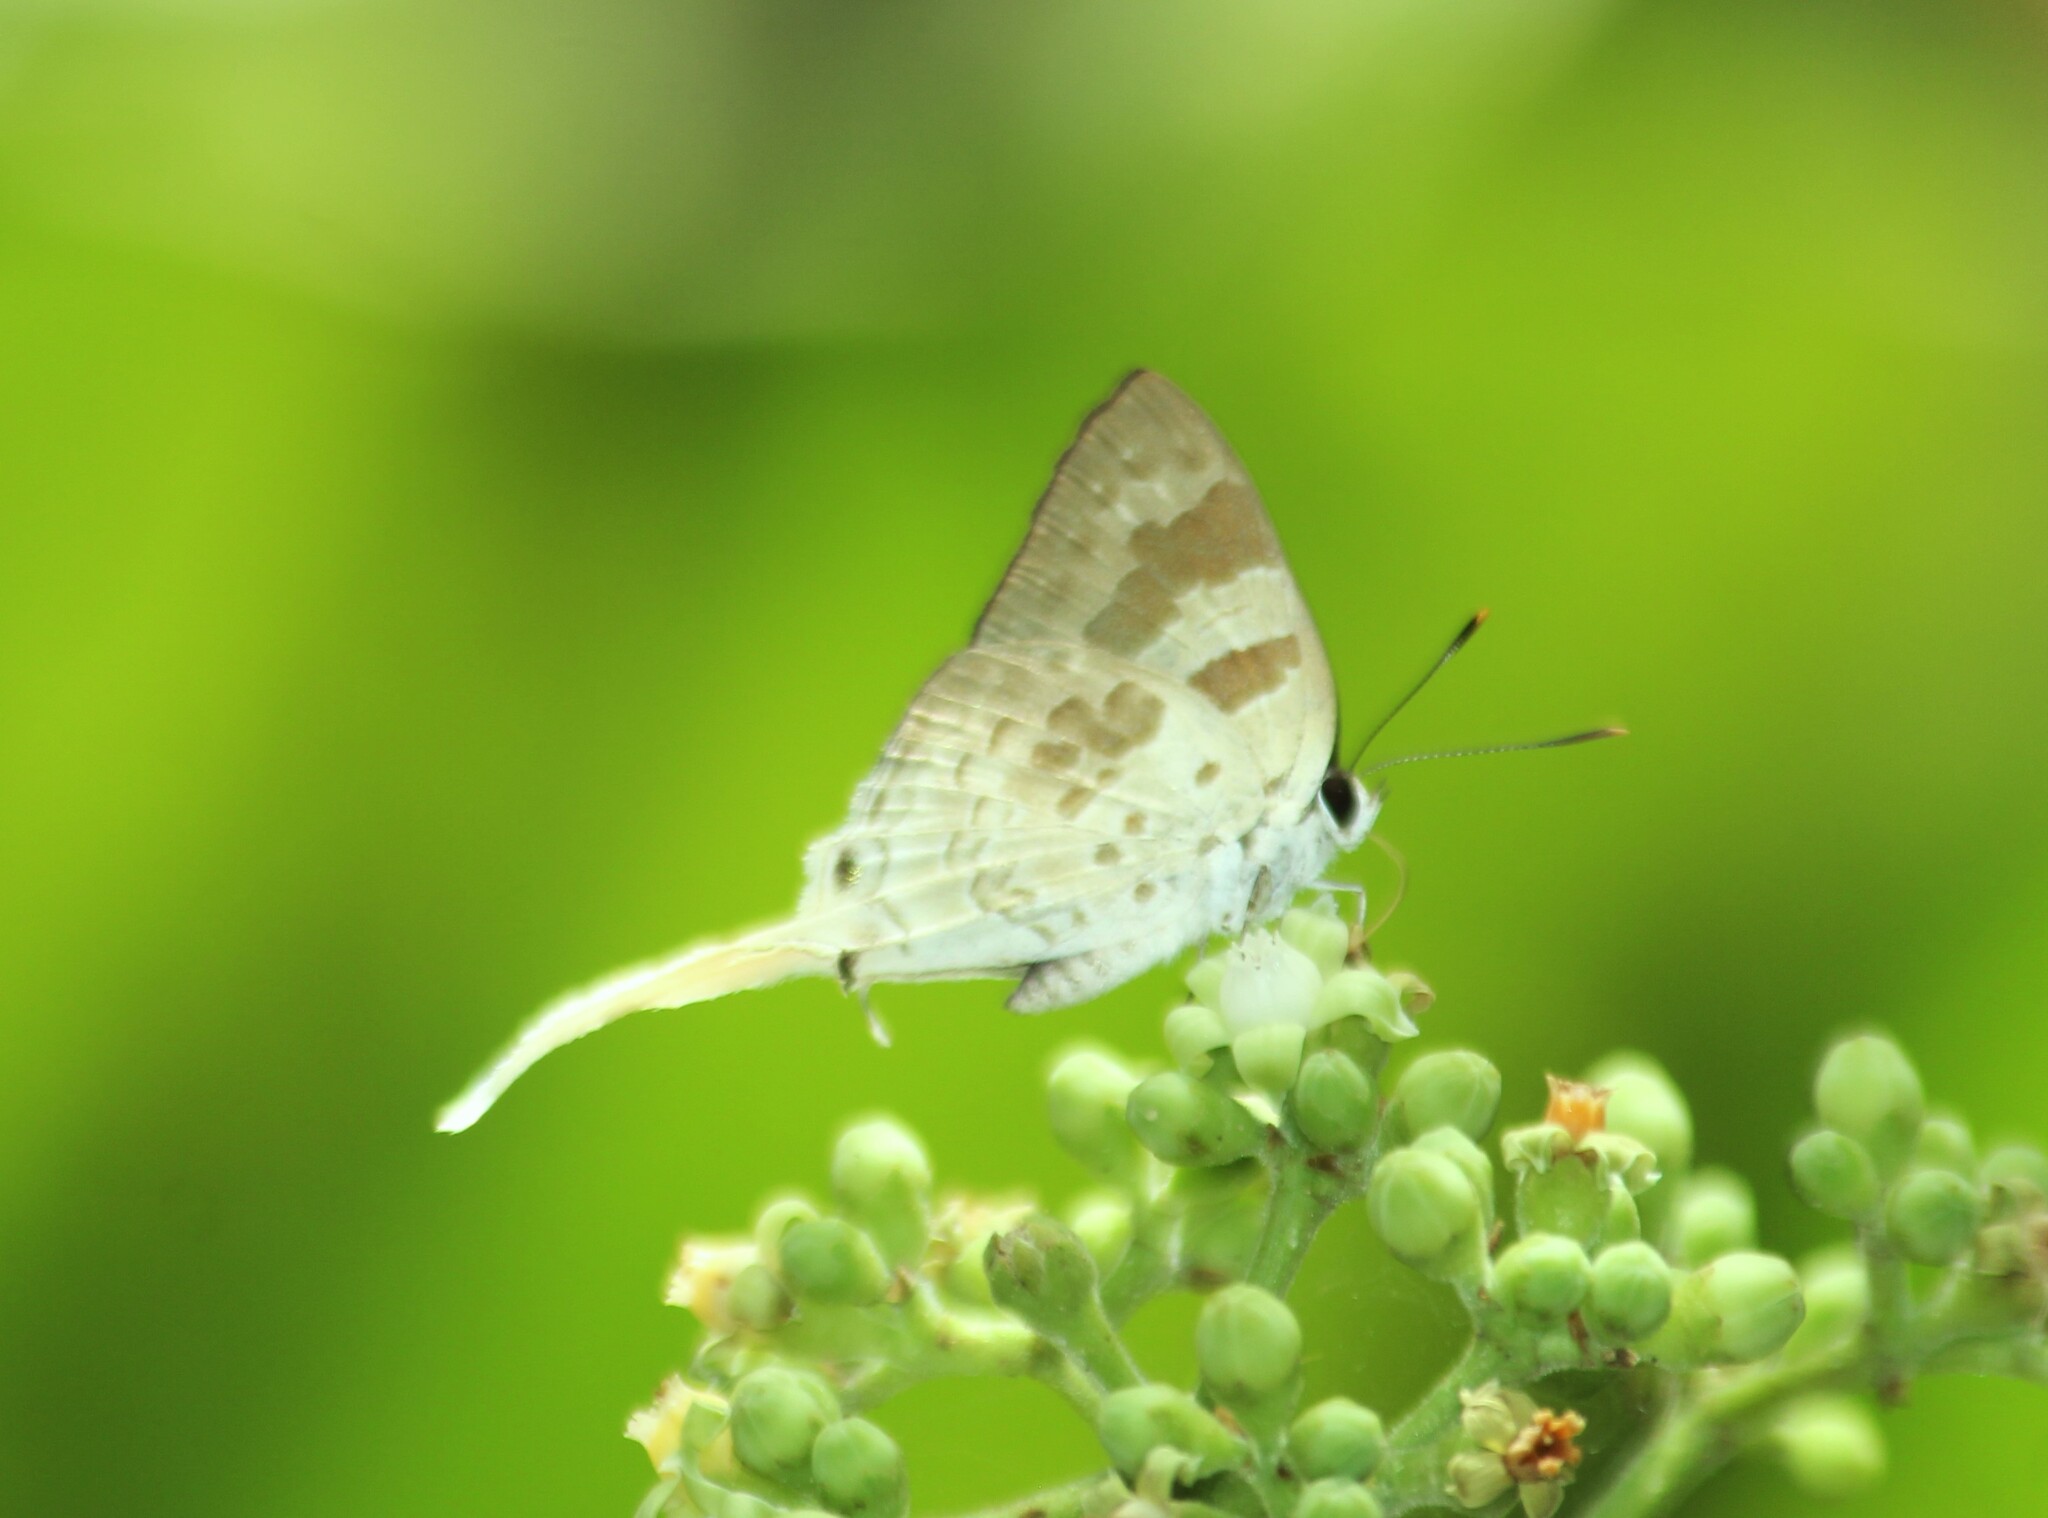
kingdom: Animalia
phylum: Arthropoda
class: Insecta
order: Lepidoptera
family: Lycaenidae
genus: Bindahara
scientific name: Bindahara phocides
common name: Sword-tailed flash
